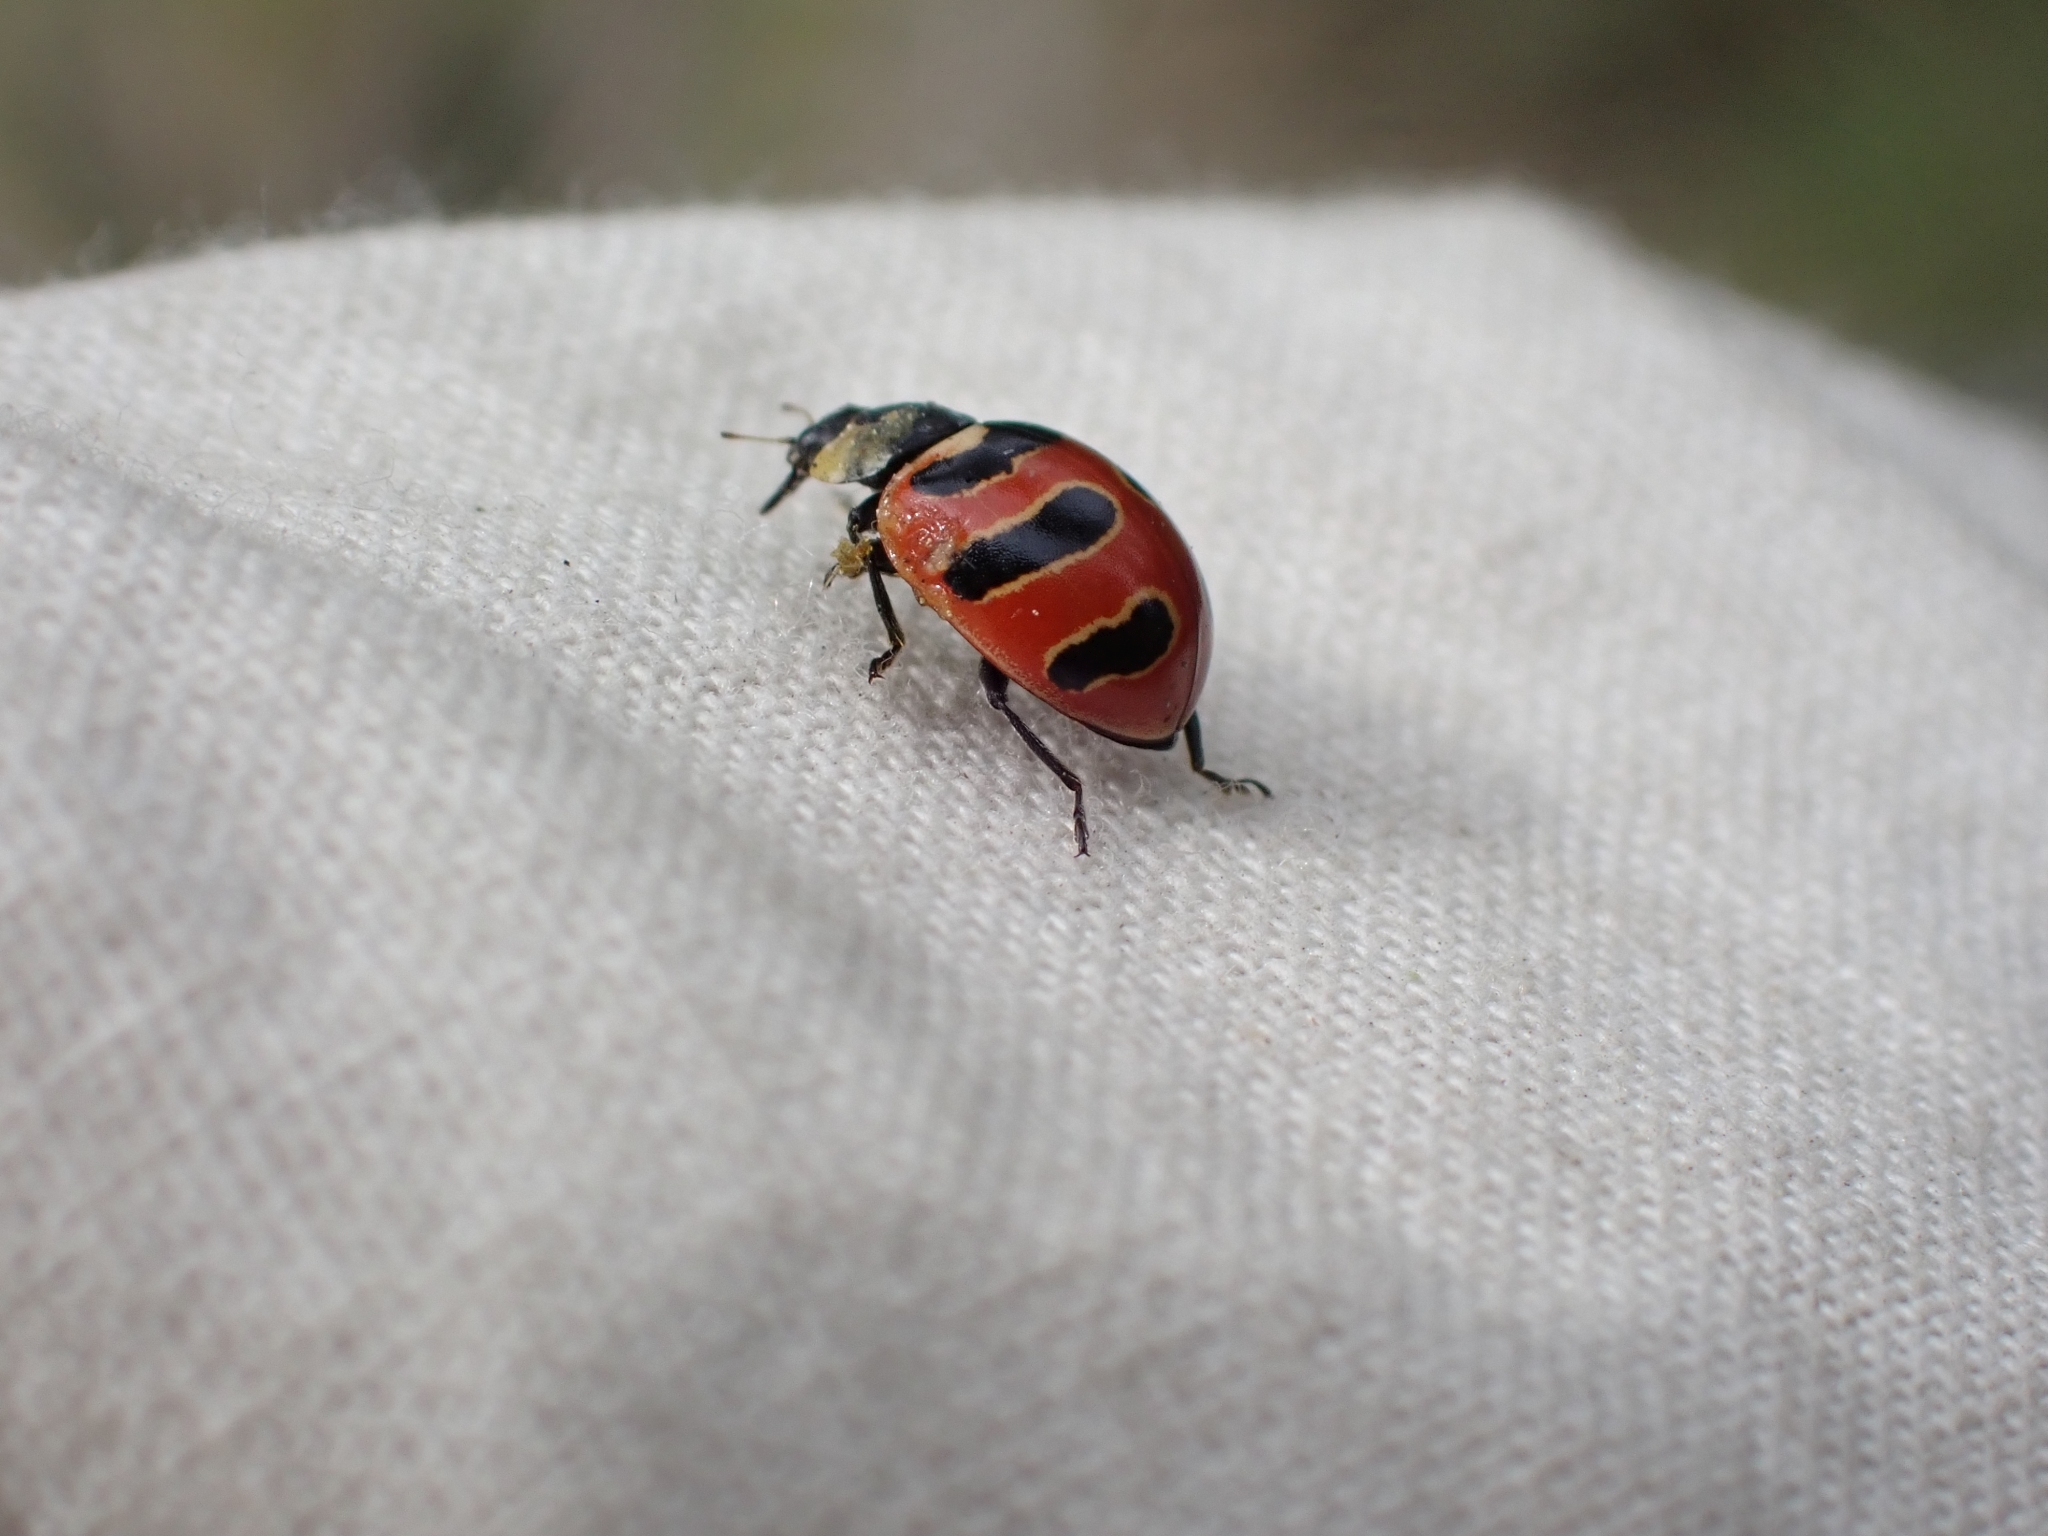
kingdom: Animalia
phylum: Arthropoda
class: Insecta
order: Coleoptera
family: Coccinellidae
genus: Coccinella
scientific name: Coccinella trifasciata
